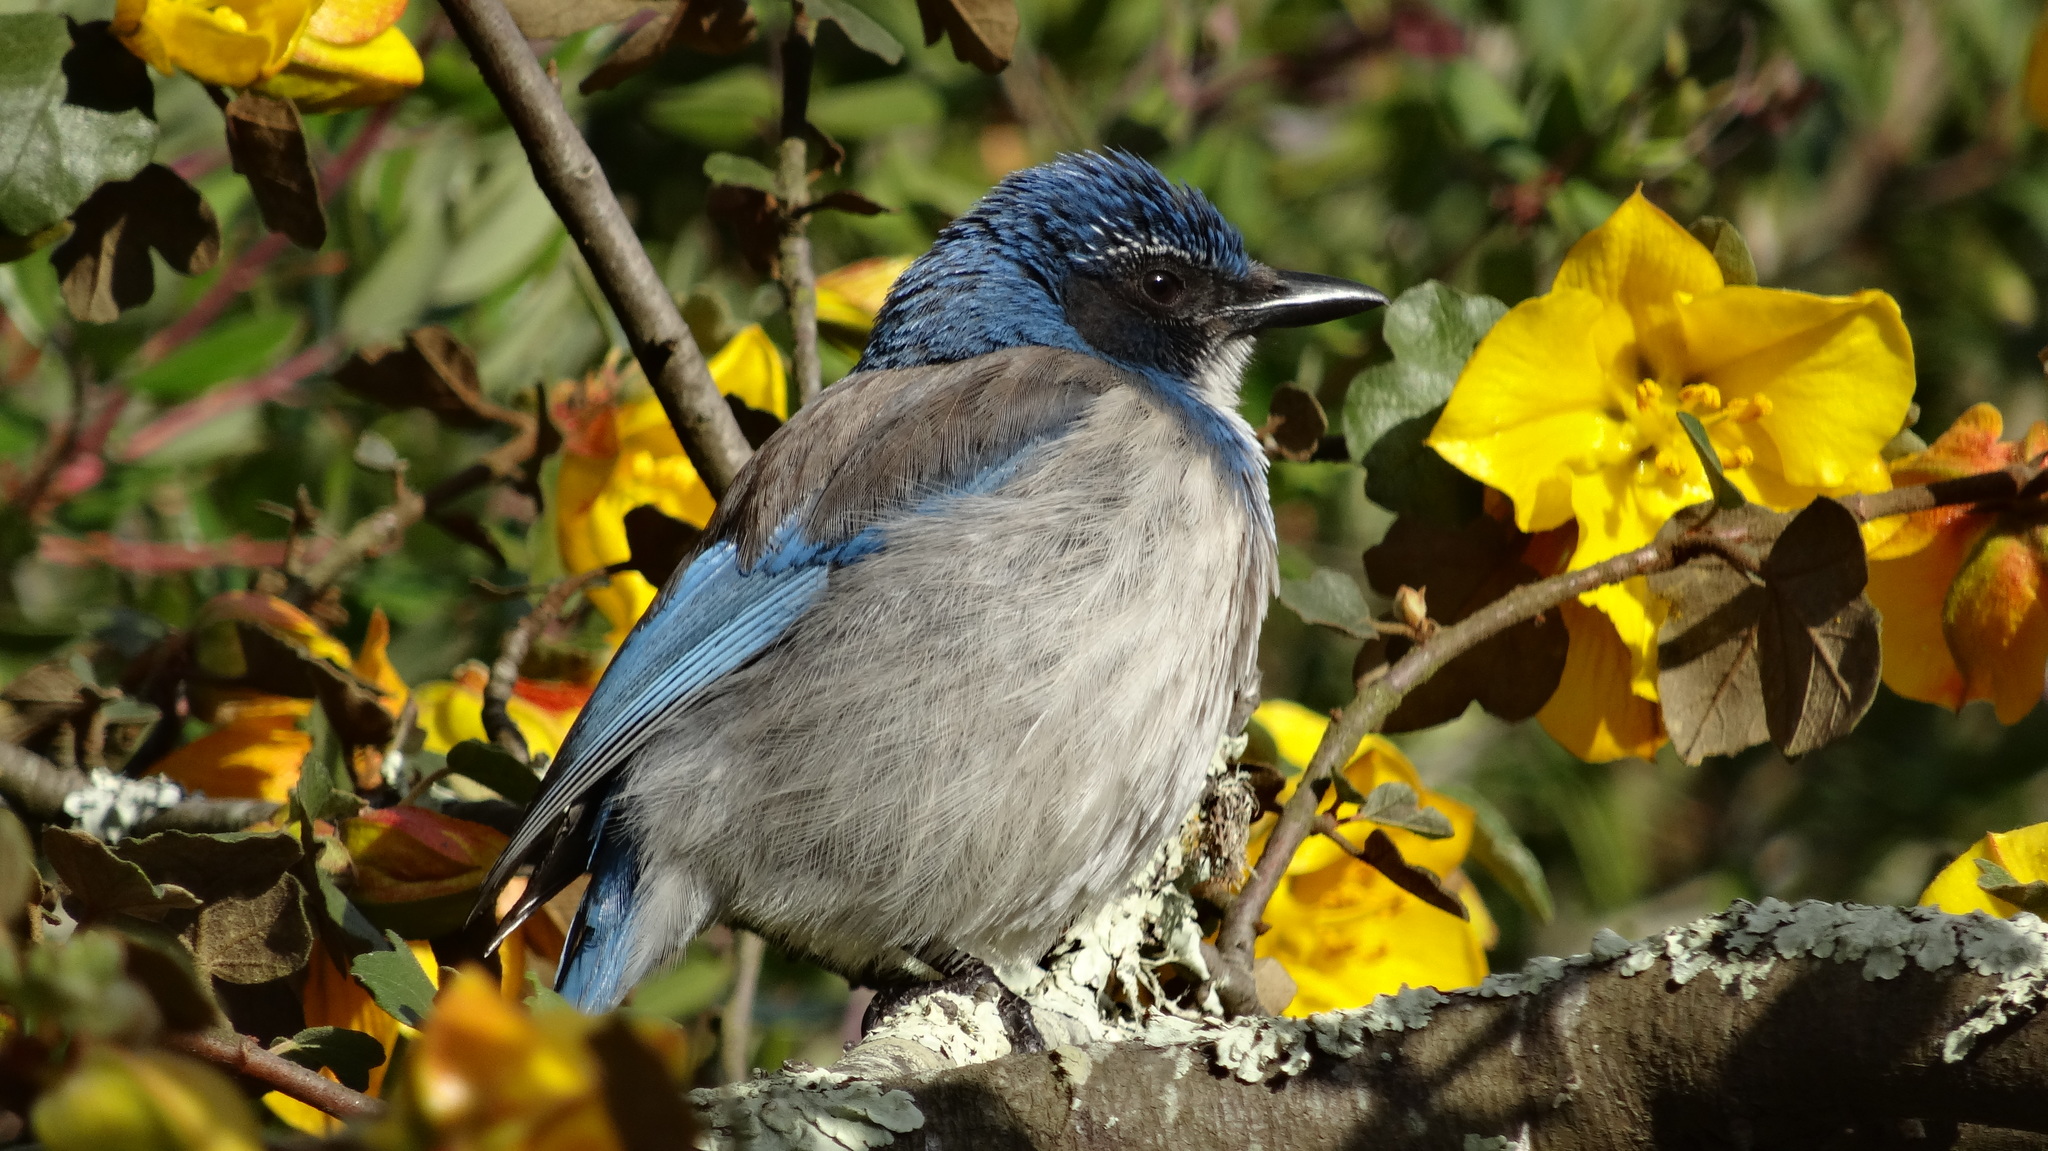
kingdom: Animalia
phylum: Chordata
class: Aves
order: Passeriformes
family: Corvidae
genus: Aphelocoma
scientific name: Aphelocoma californica
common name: California scrub-jay
